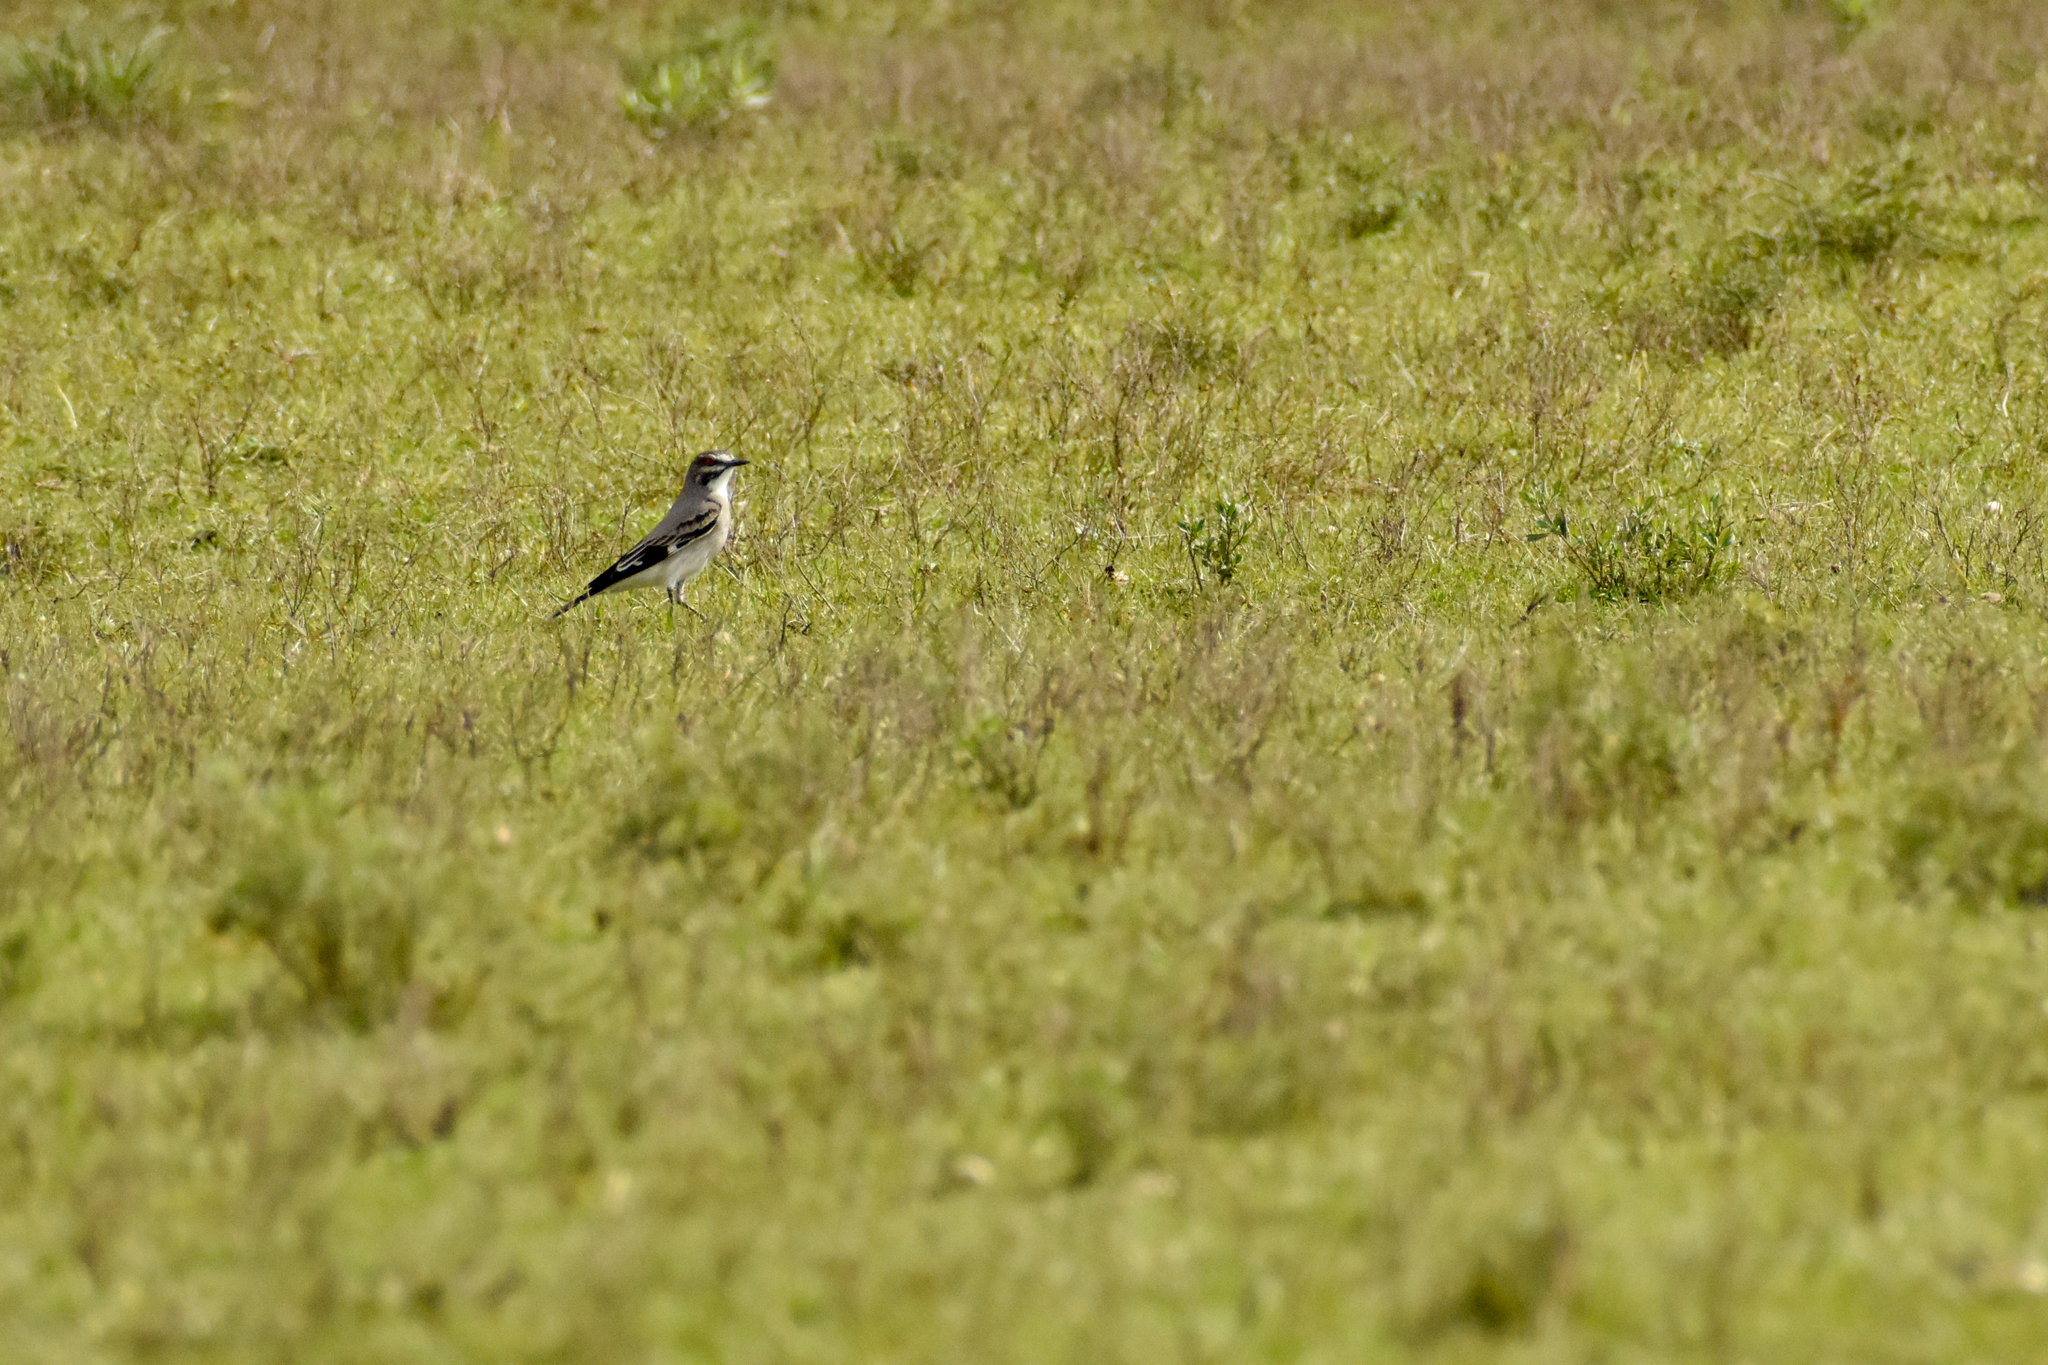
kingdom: Animalia
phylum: Chordata
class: Aves
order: Passeriformes
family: Tyrannidae
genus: Xolmis
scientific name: Xolmis cinereus
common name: Grey monjita
